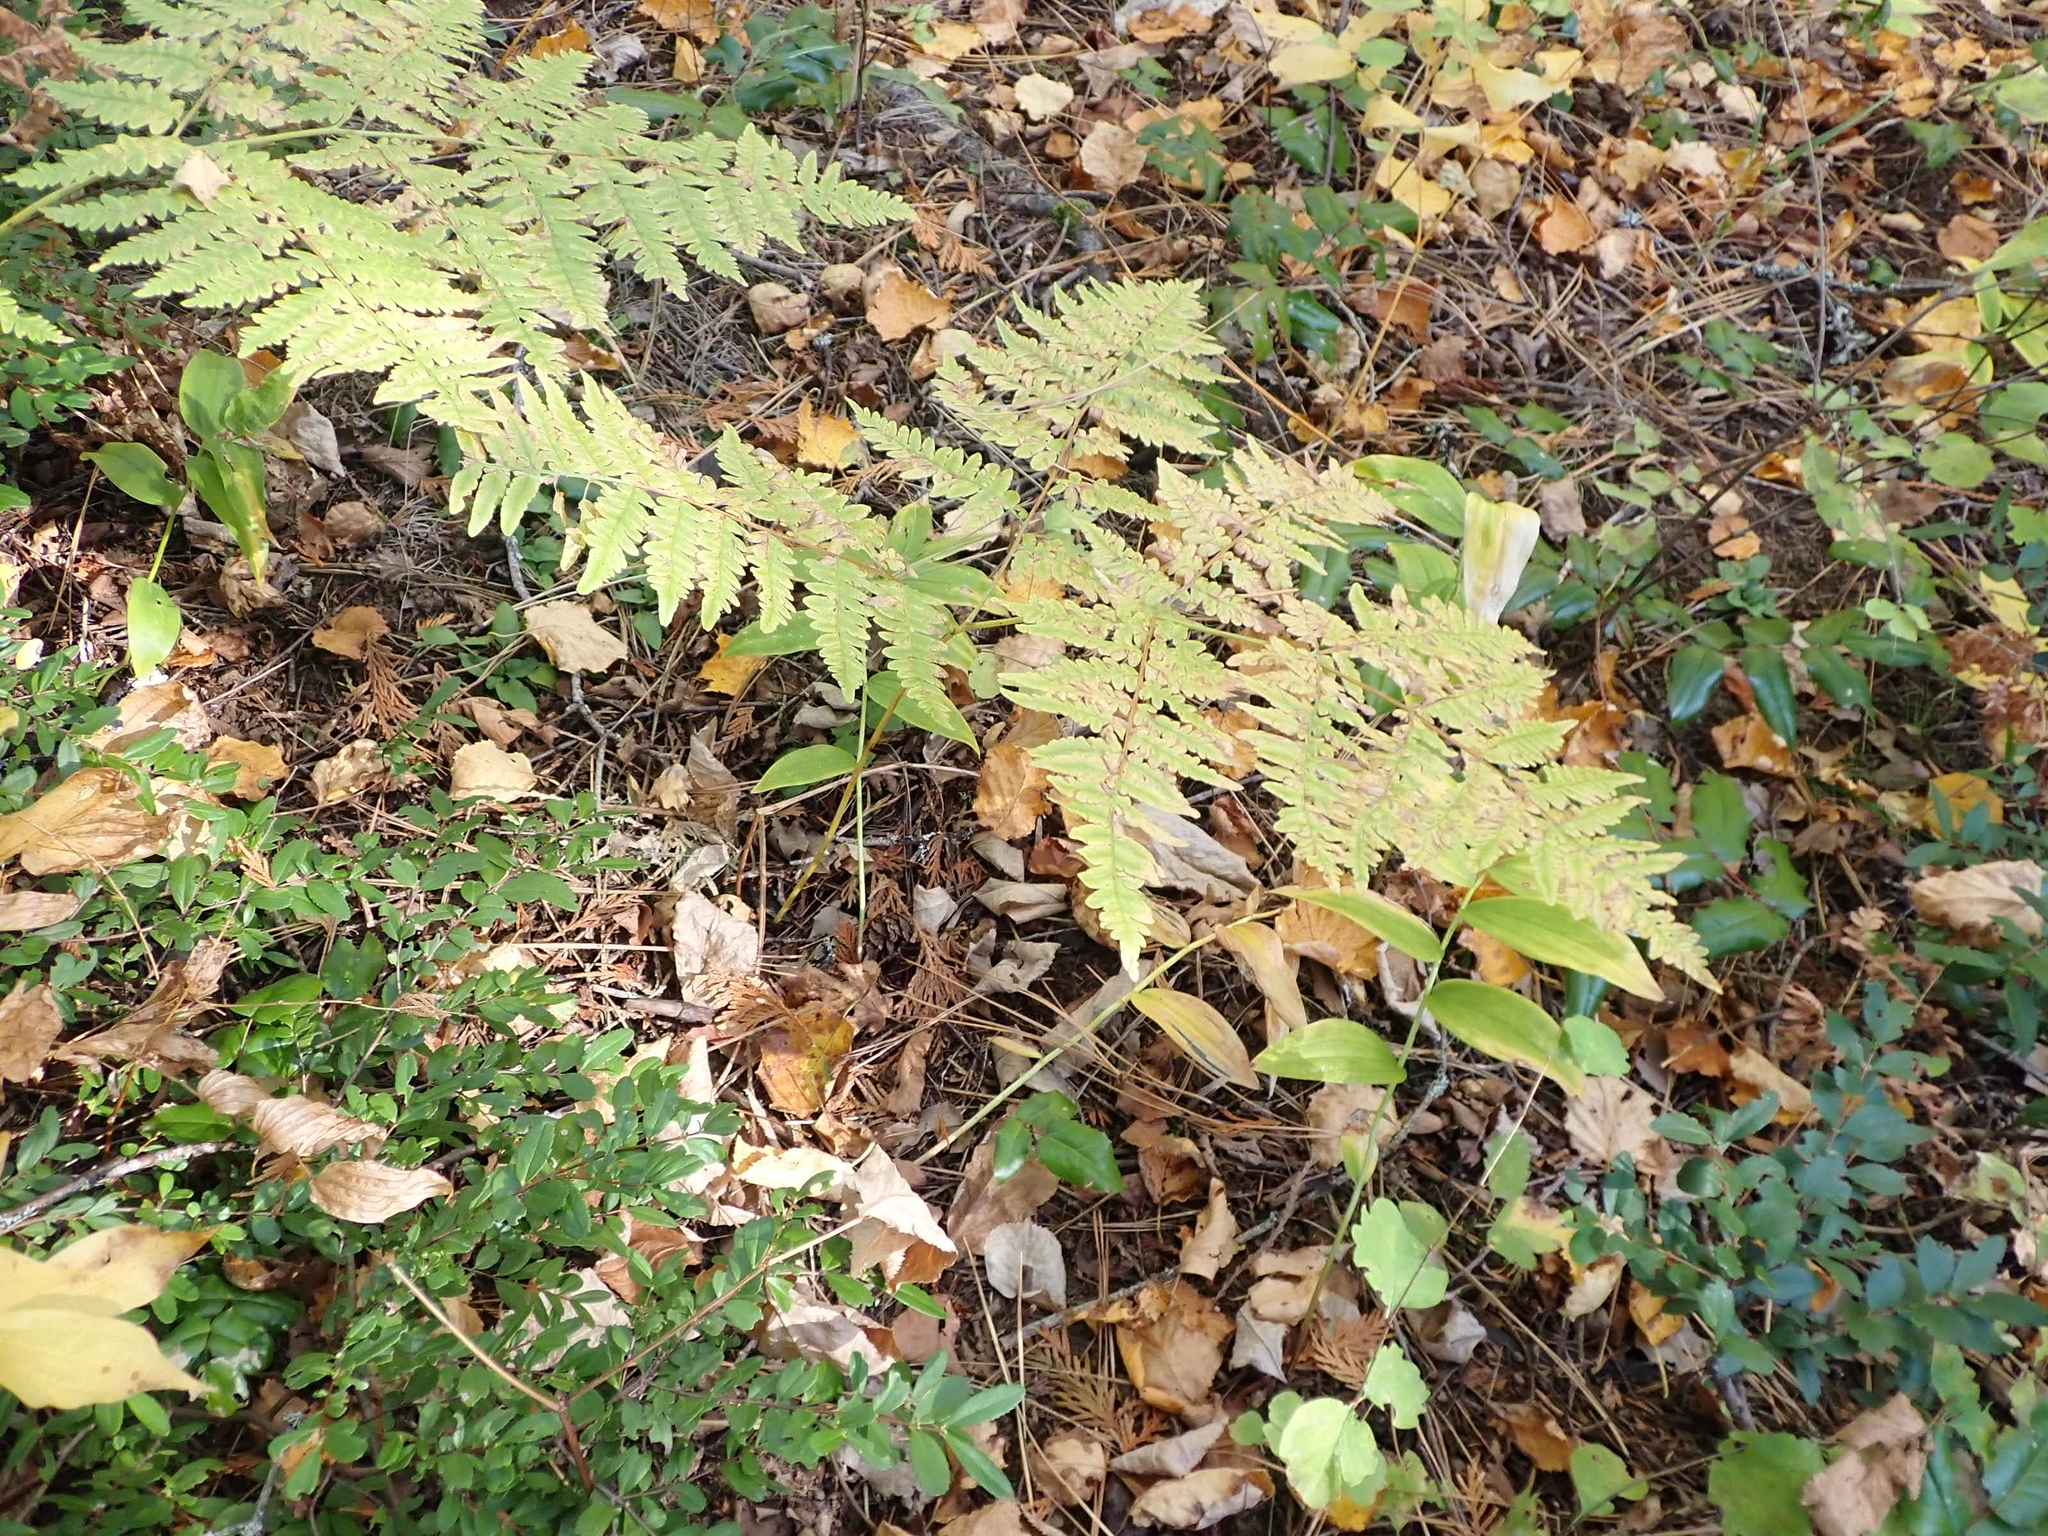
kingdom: Plantae
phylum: Tracheophyta
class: Polypodiopsida
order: Polypodiales
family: Dennstaedtiaceae
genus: Pteridium
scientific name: Pteridium aquilinum
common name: Bracken
